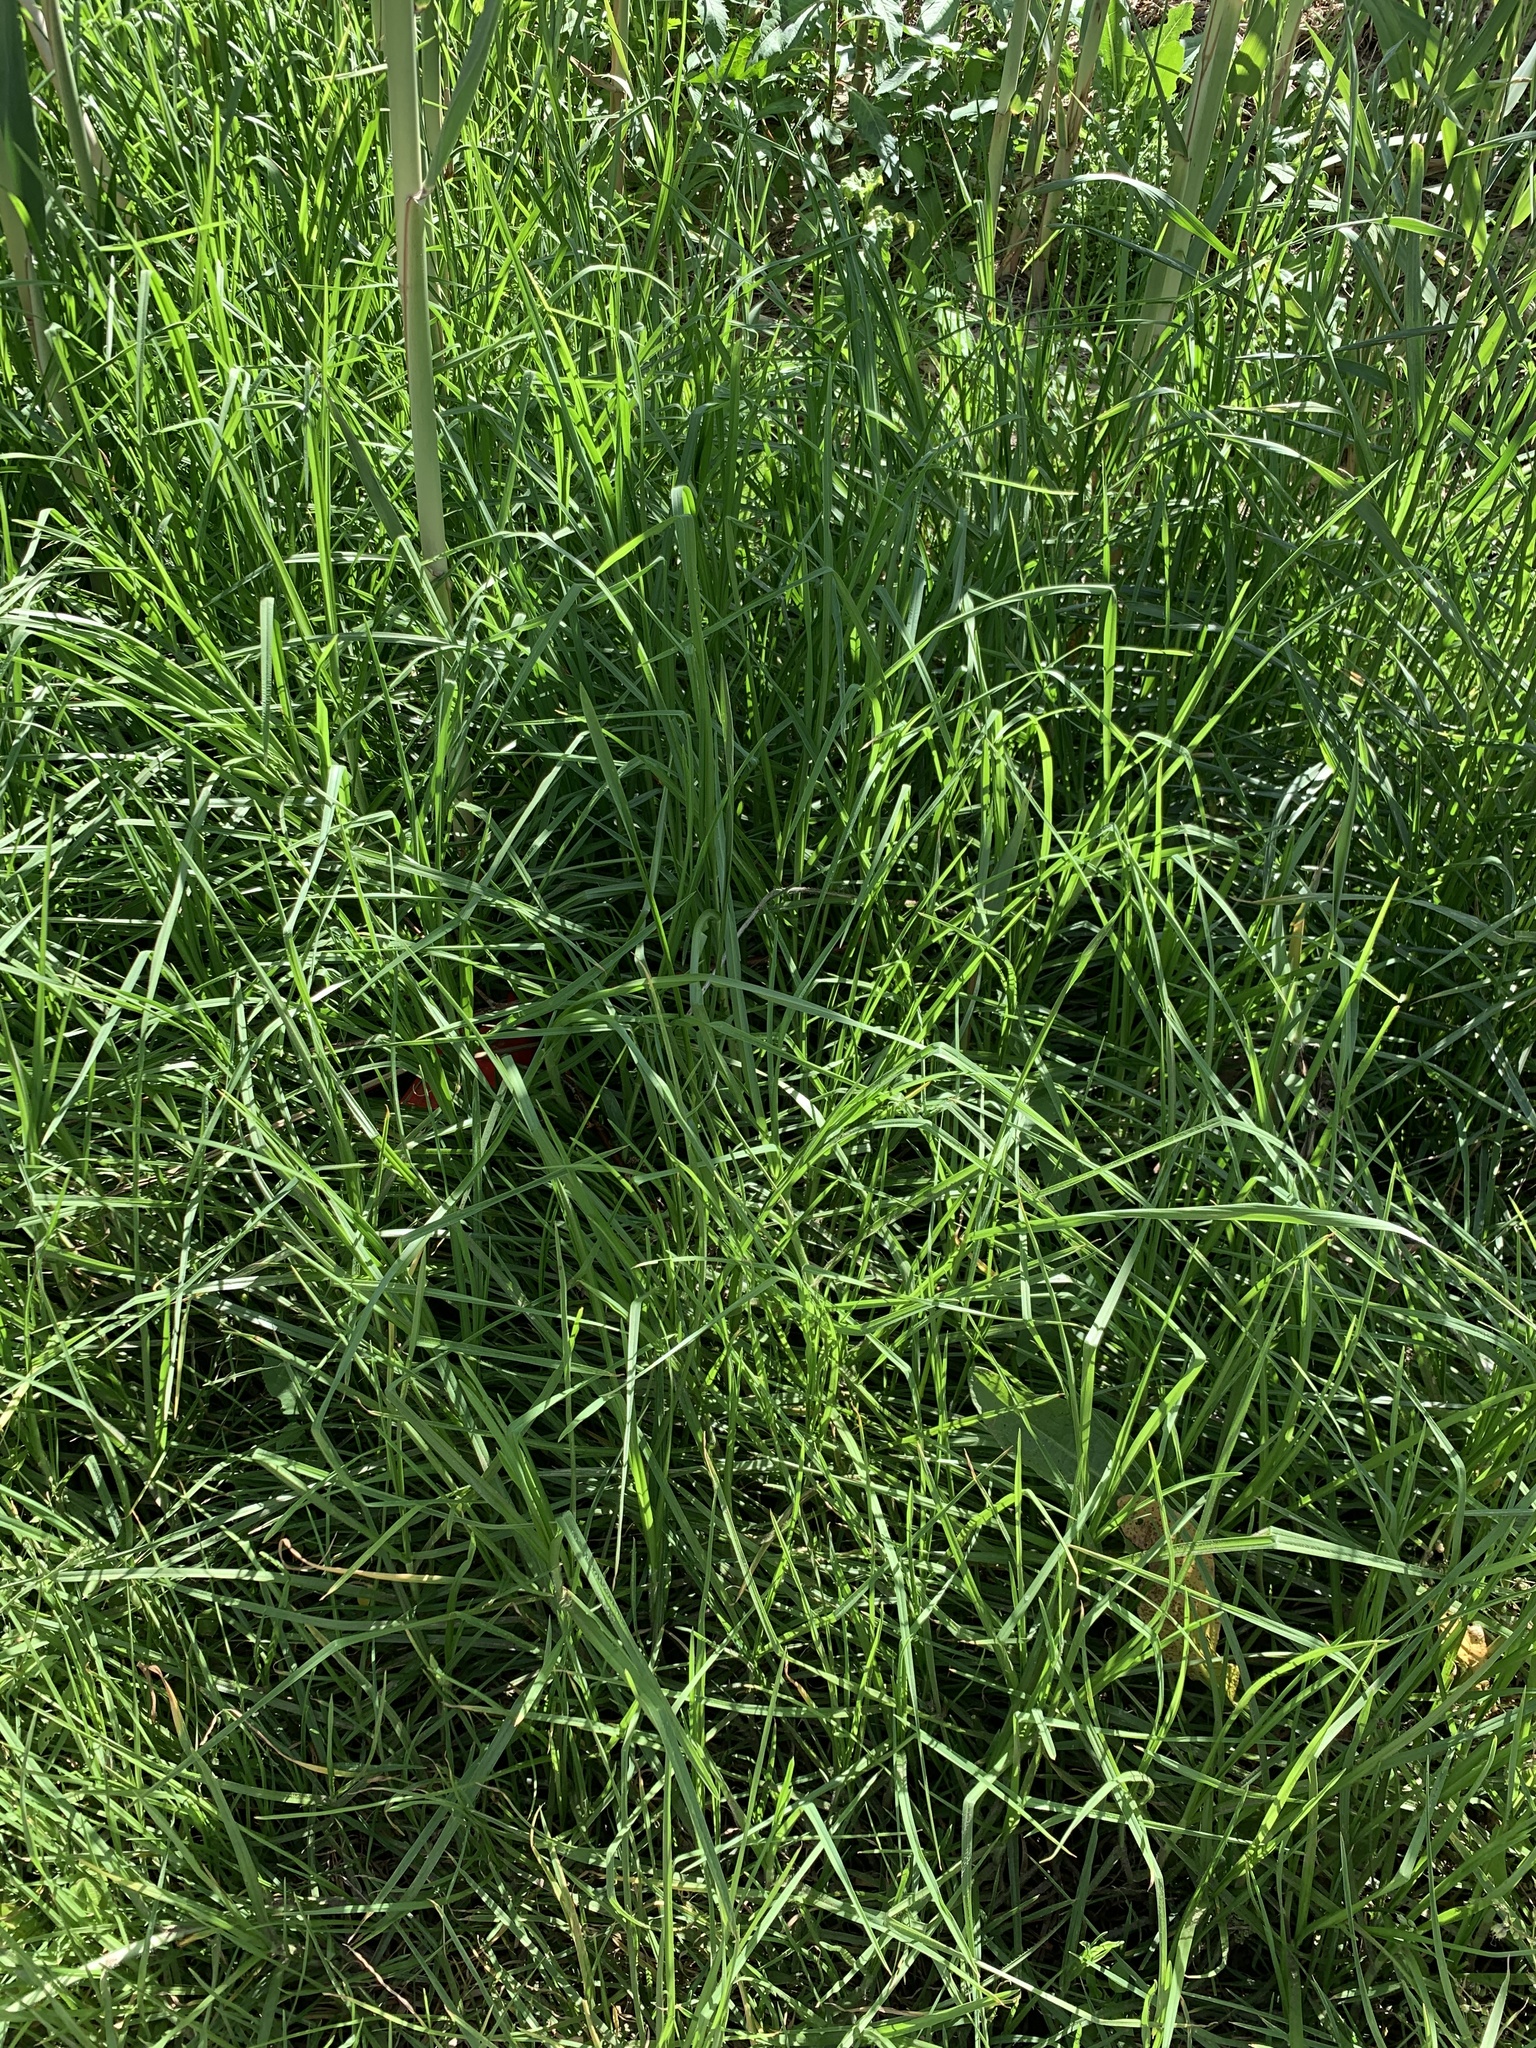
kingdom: Plantae
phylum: Tracheophyta
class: Liliopsida
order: Poales
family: Poaceae
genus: Cenchrus
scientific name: Cenchrus clandestinus
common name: Kikuyugrass
